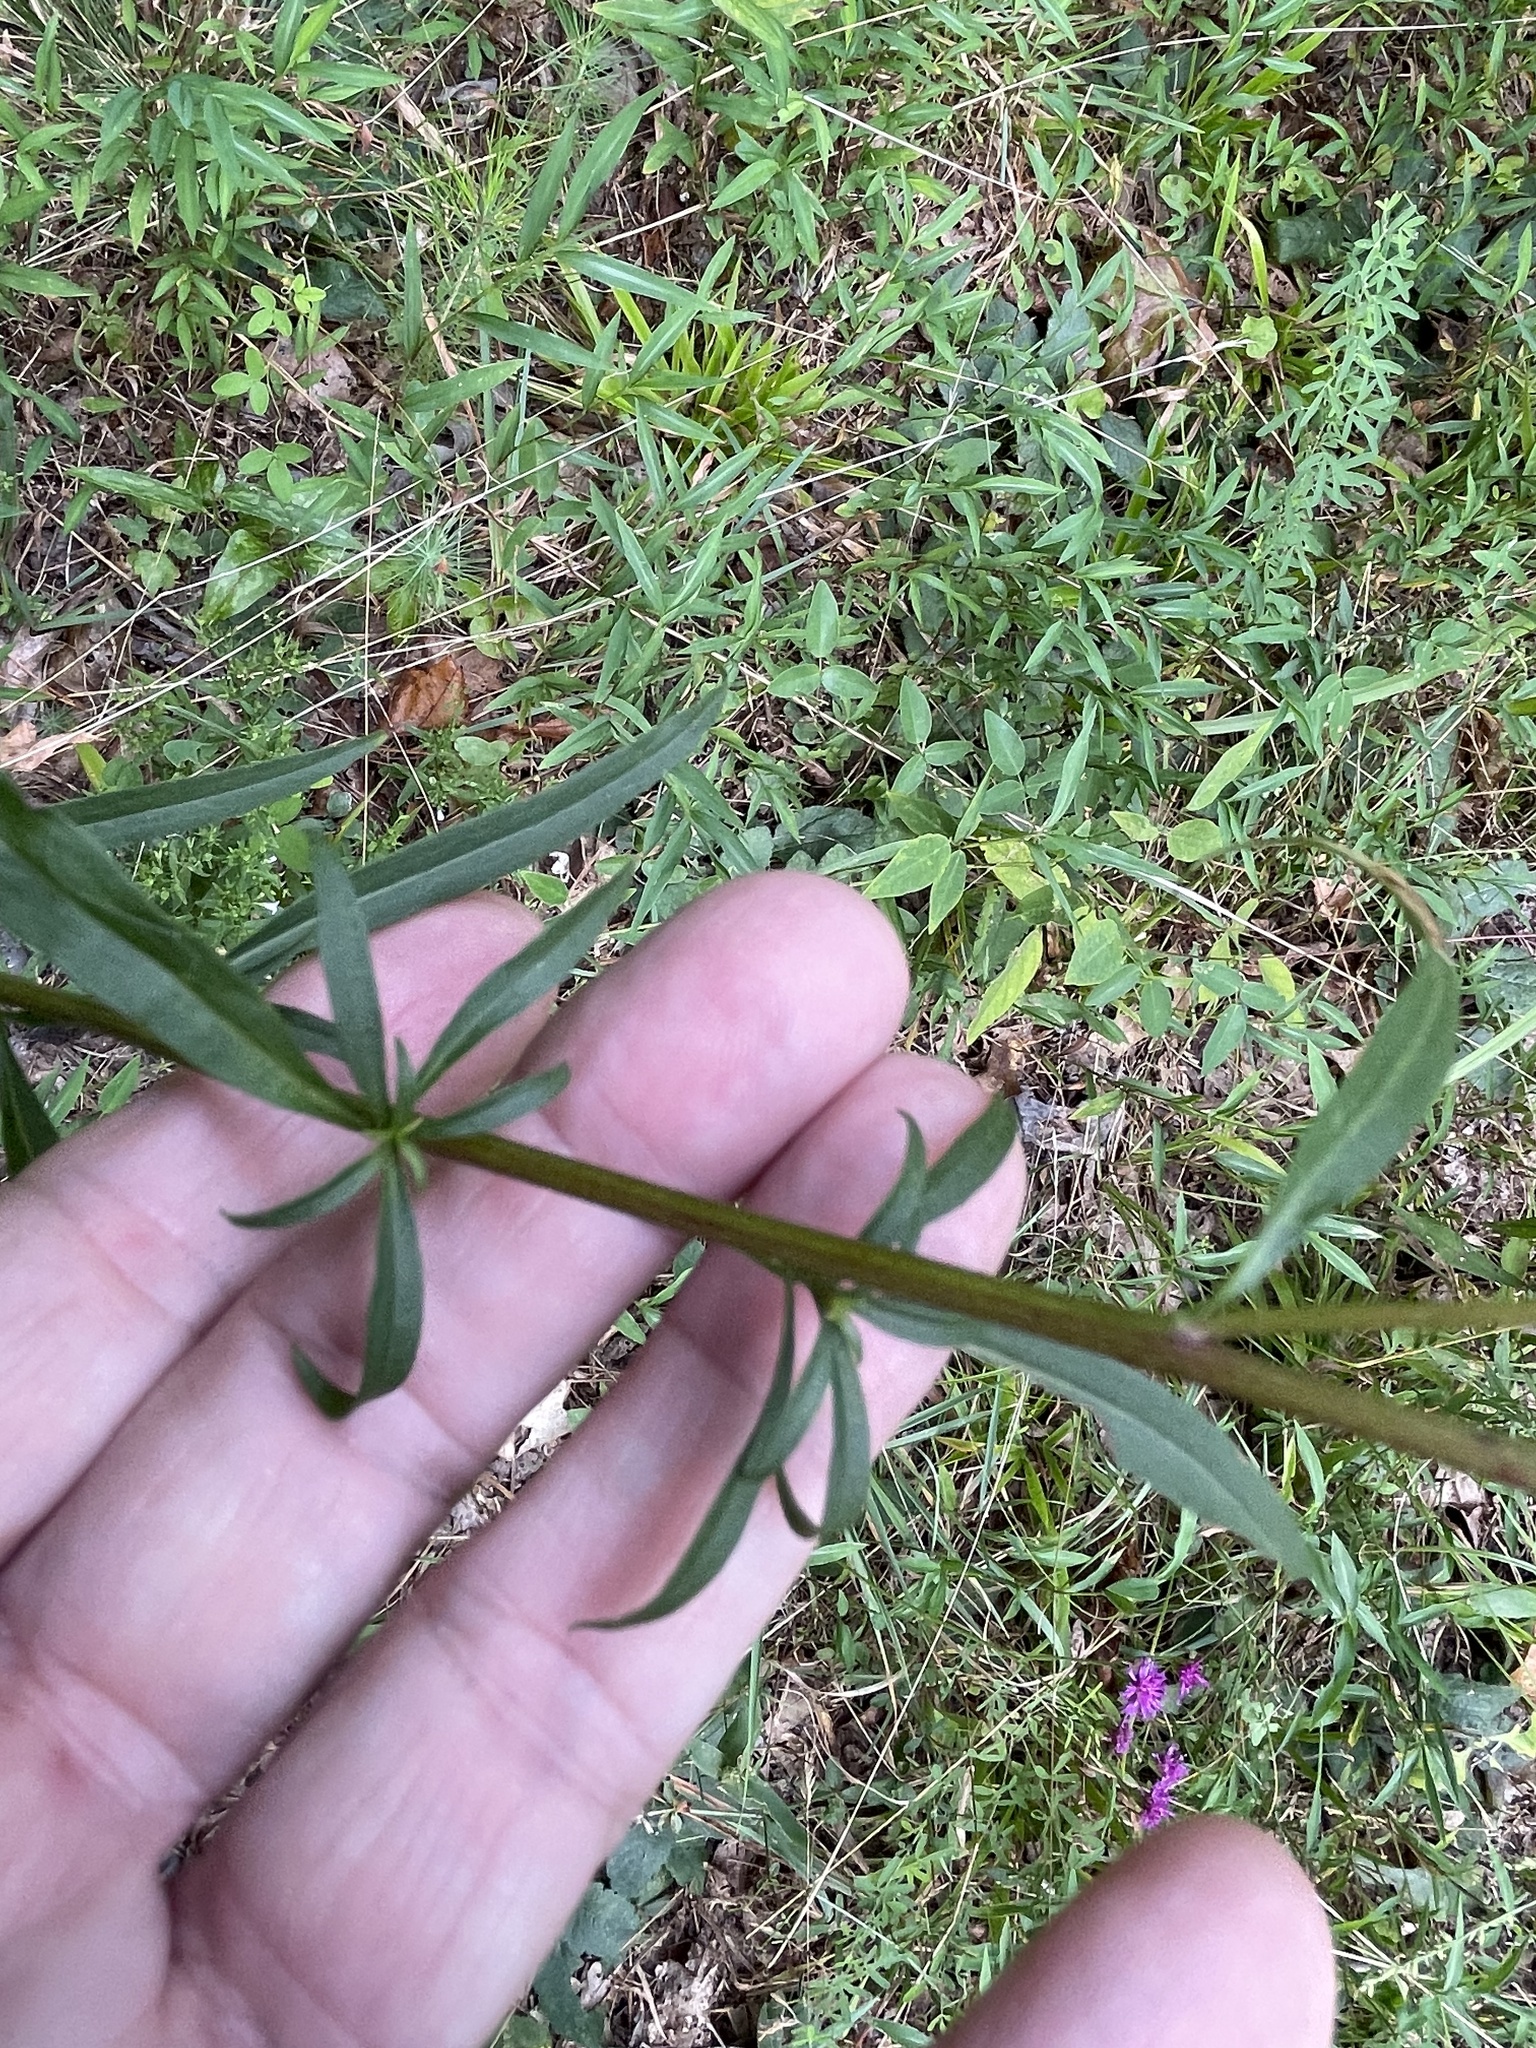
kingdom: Plantae
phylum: Tracheophyta
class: Magnoliopsida
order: Asterales
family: Asteraceae
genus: Solidago
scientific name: Solidago pinetorum
